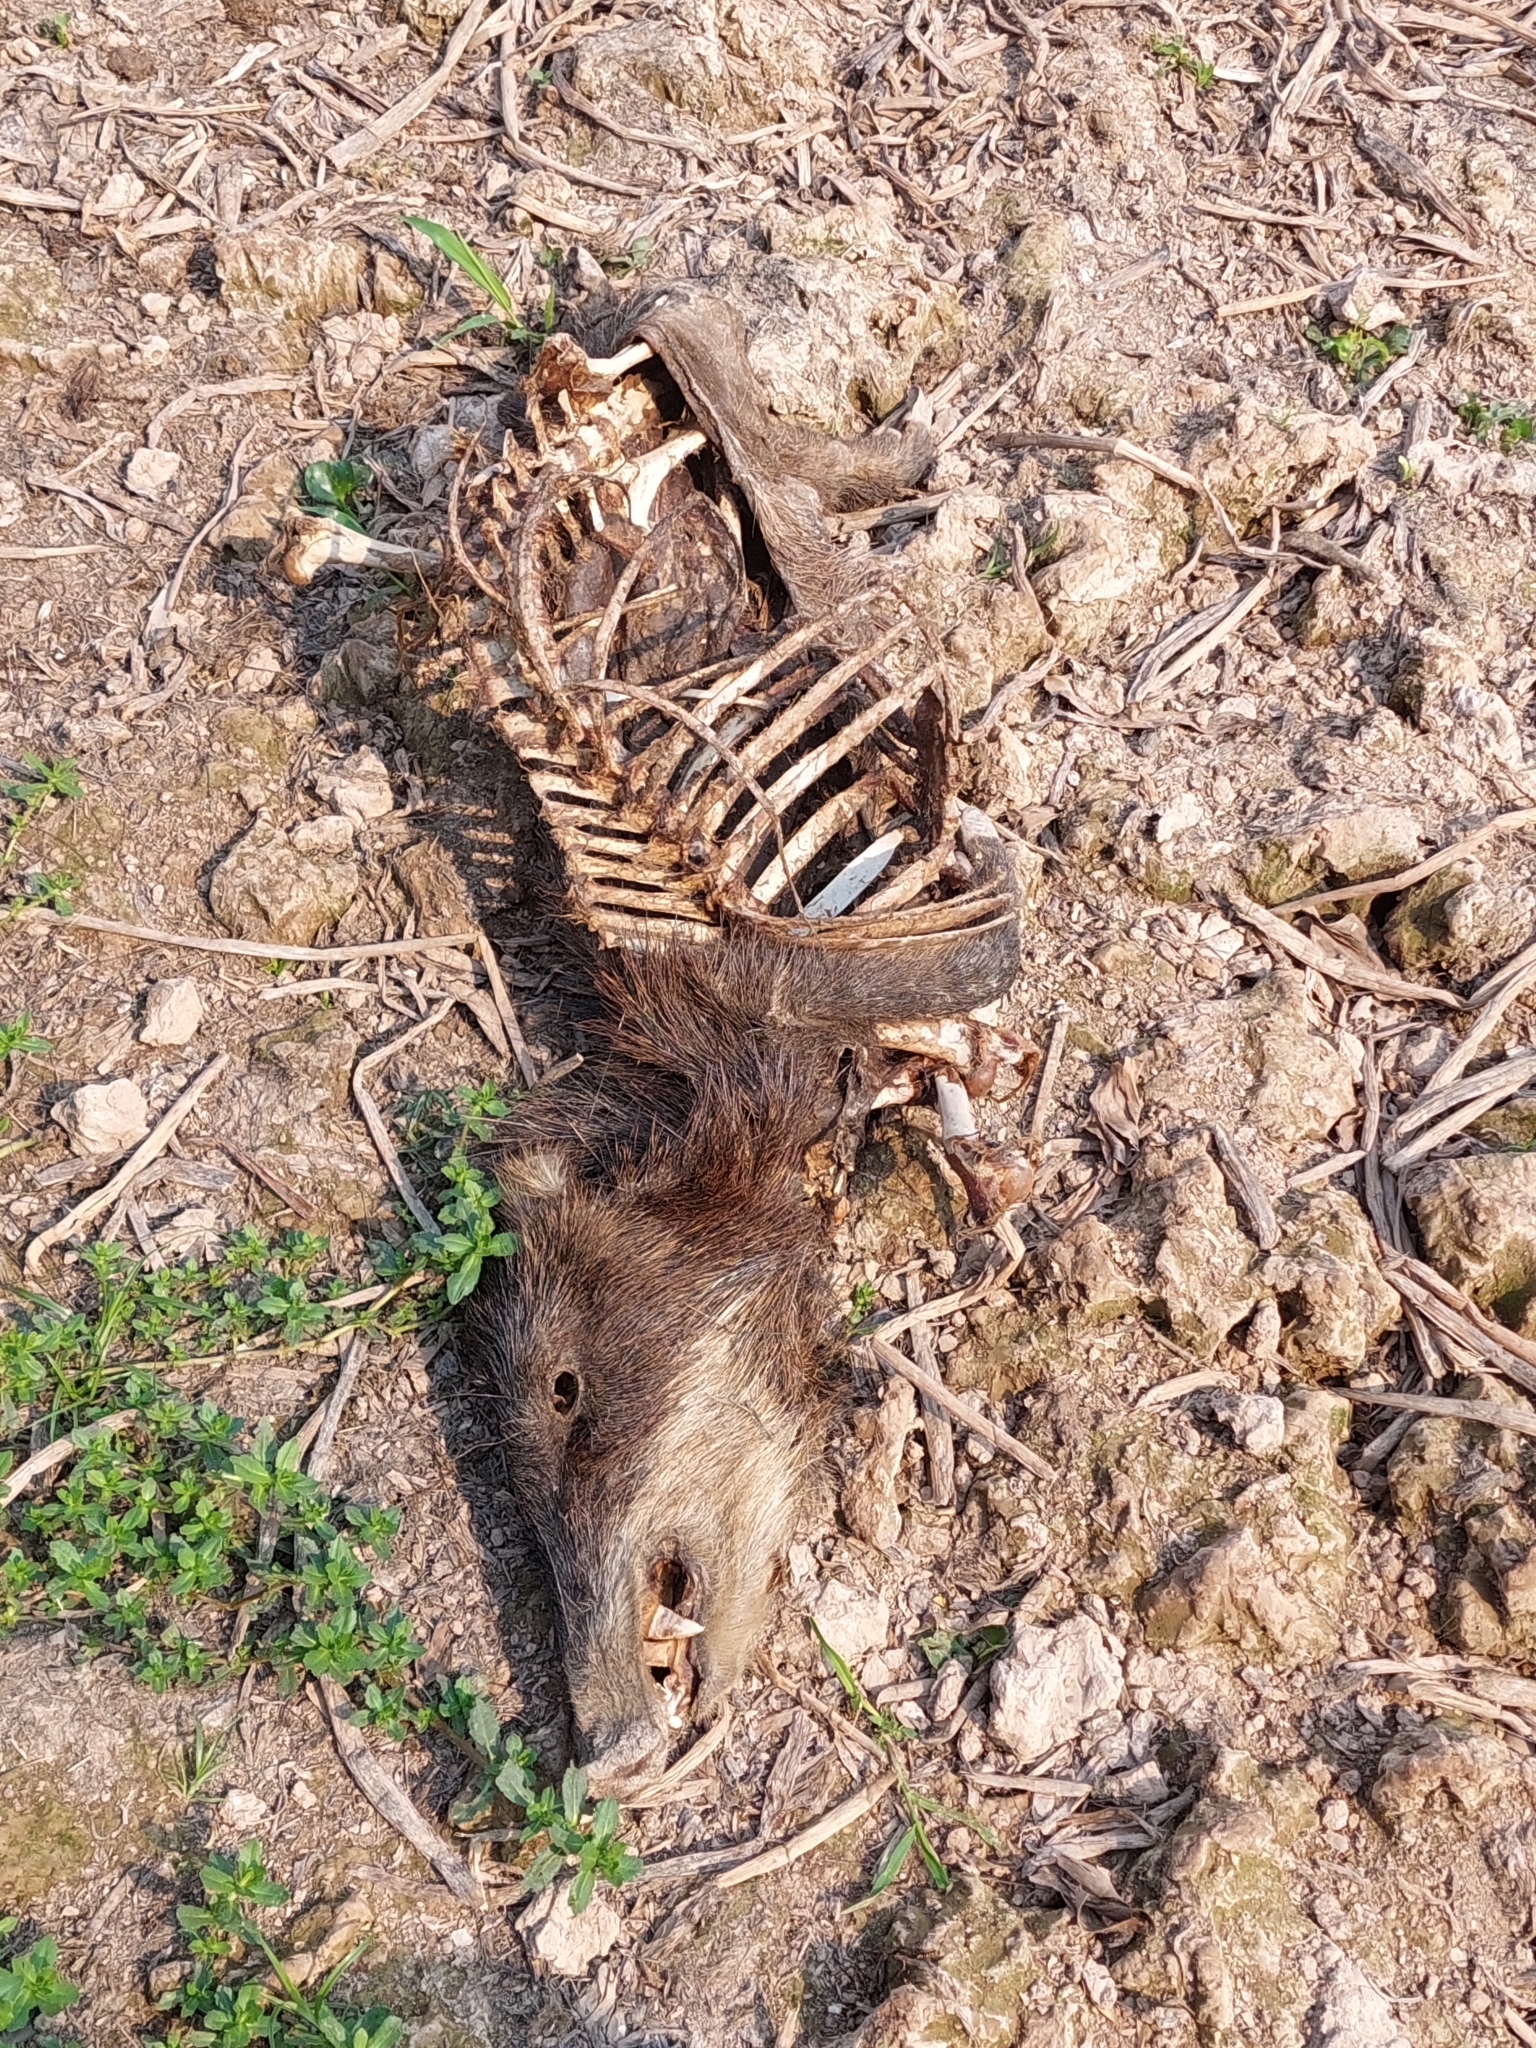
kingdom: Animalia
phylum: Chordata
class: Mammalia
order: Artiodactyla
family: Tayassuidae
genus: Tayassu
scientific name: Tayassu pecari
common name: White-lipped peccary
